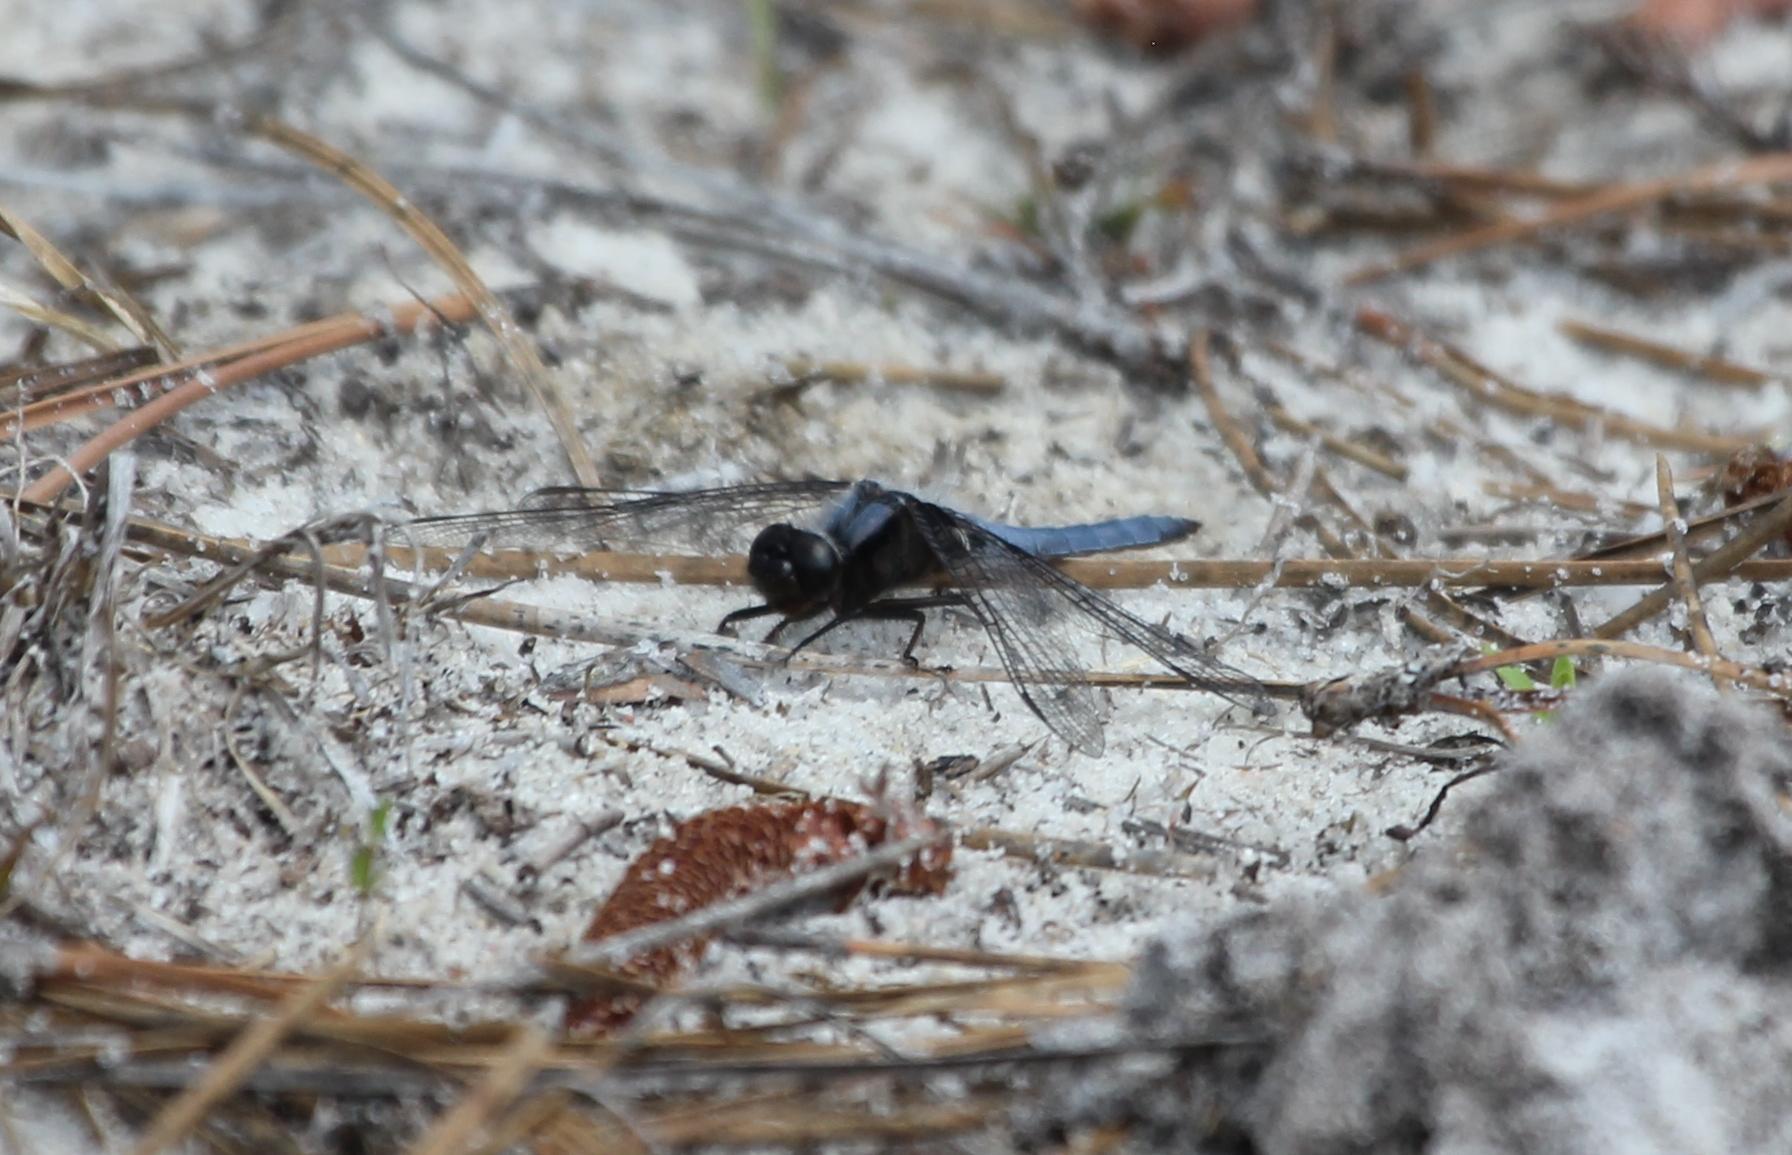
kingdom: Animalia
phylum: Arthropoda
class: Insecta
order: Odonata
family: Libellulidae
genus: Ladona
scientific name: Ladona deplanata
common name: Blue corporal
